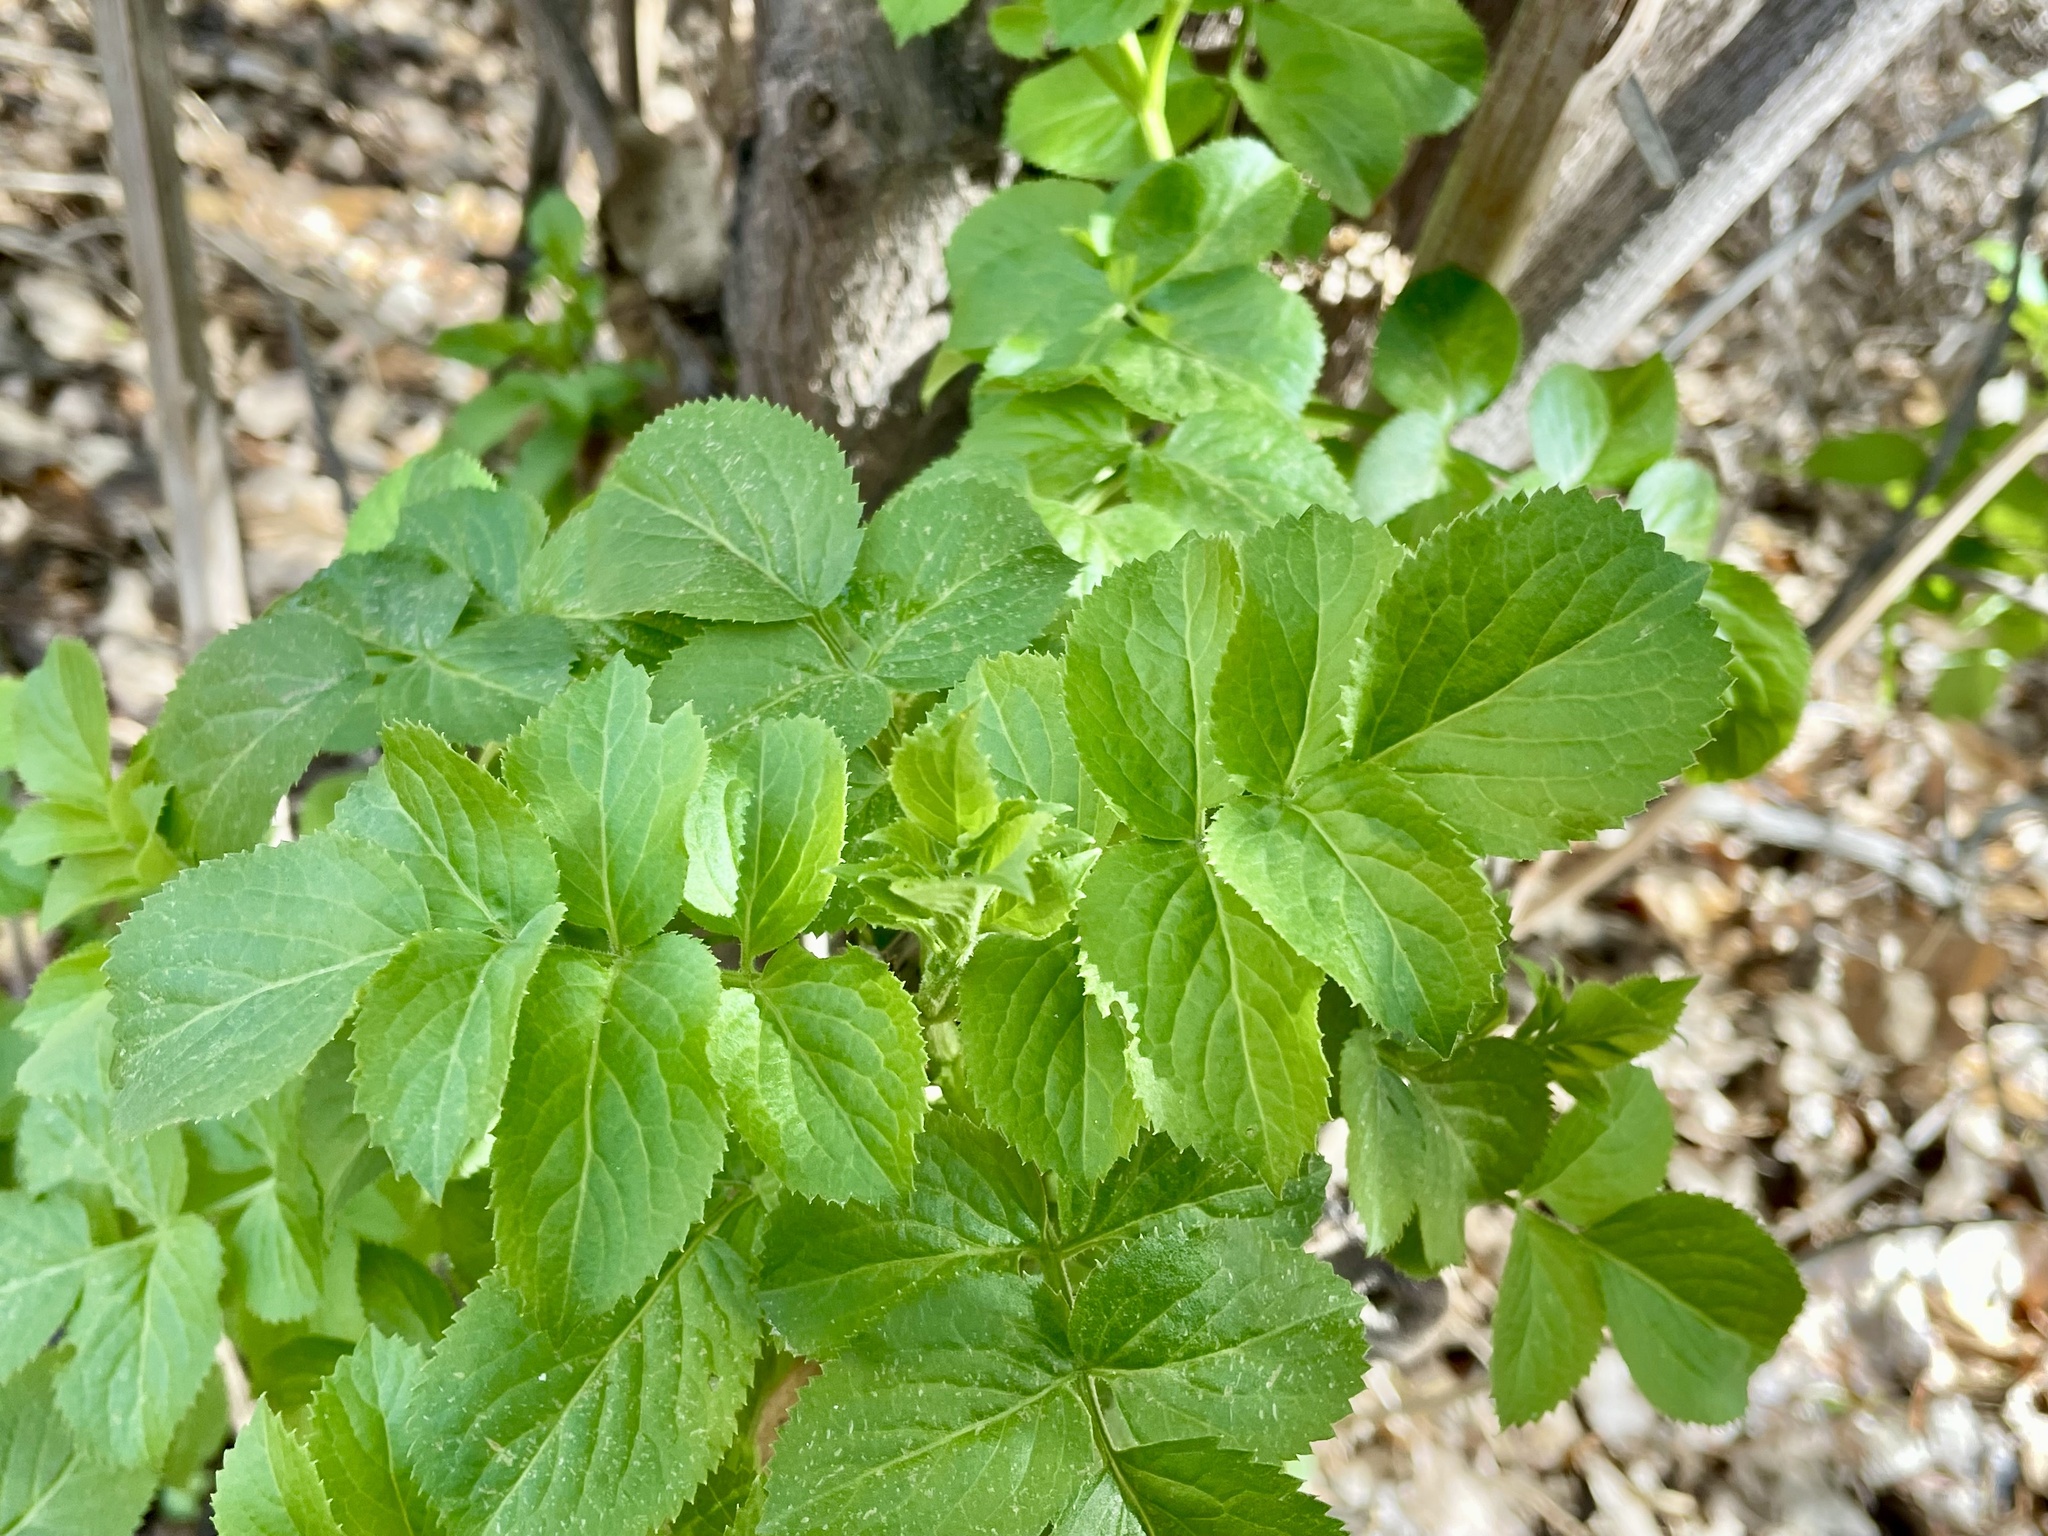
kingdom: Plantae
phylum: Tracheophyta
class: Magnoliopsida
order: Dipsacales
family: Viburnaceae
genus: Sambucus
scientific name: Sambucus cerulea
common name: Blue elder
